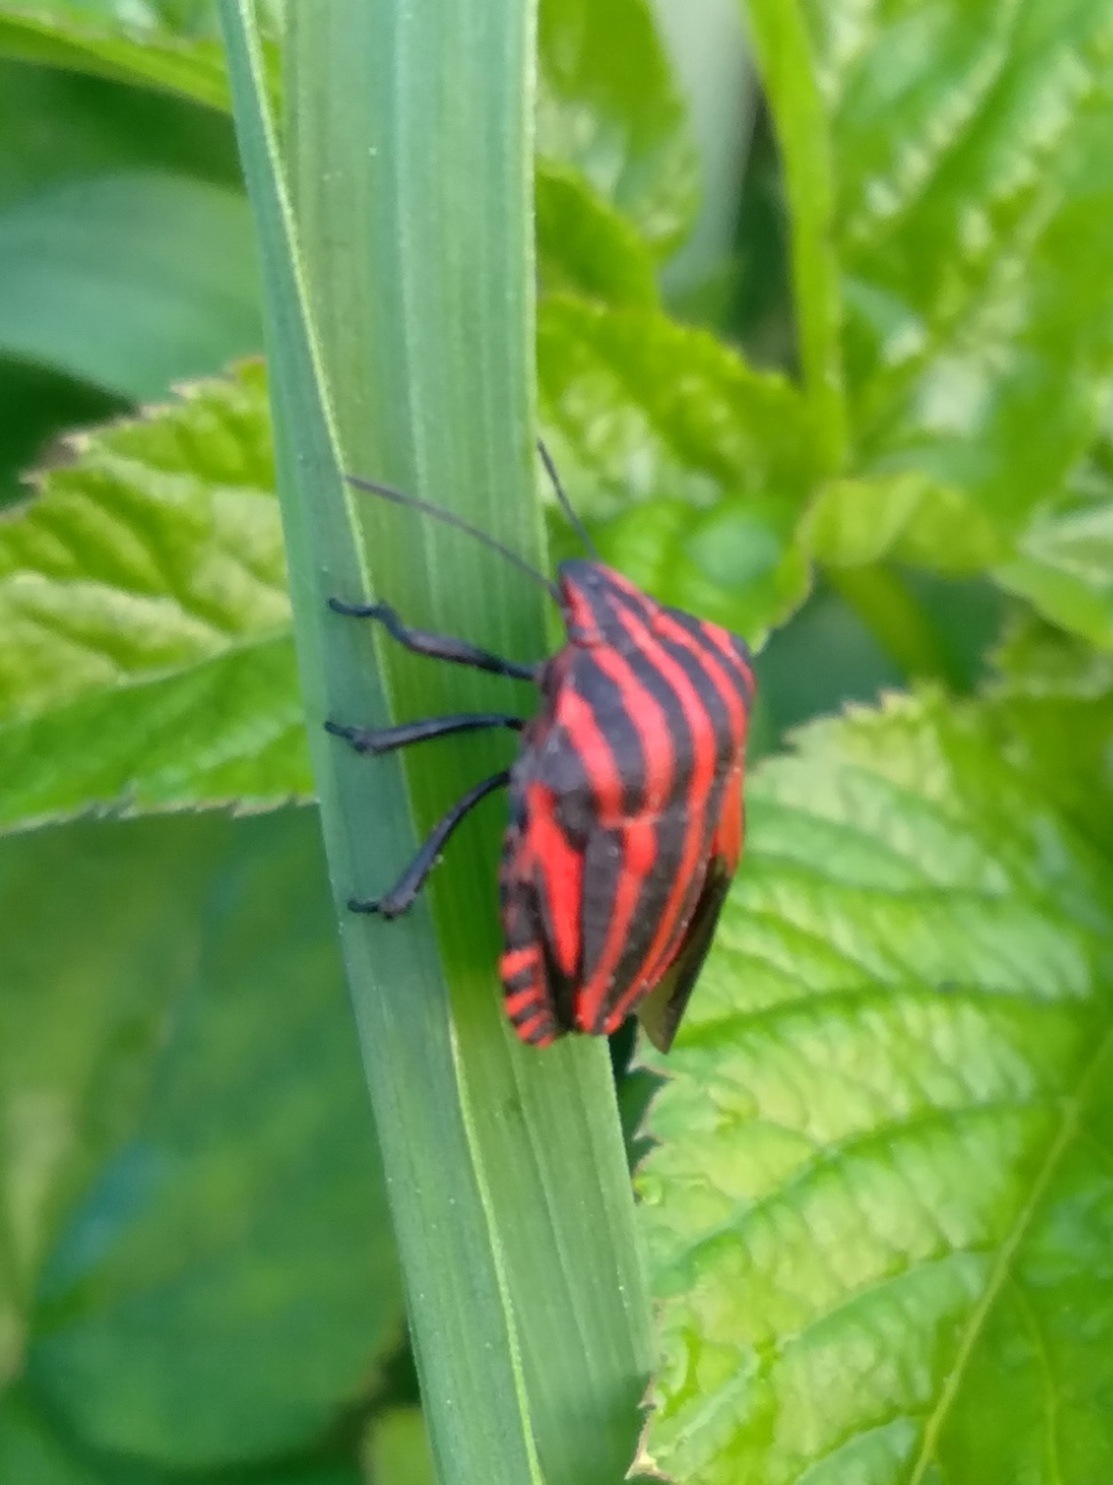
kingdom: Animalia
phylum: Arthropoda
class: Insecta
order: Hemiptera
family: Pentatomidae
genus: Graphosoma
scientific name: Graphosoma italicum
